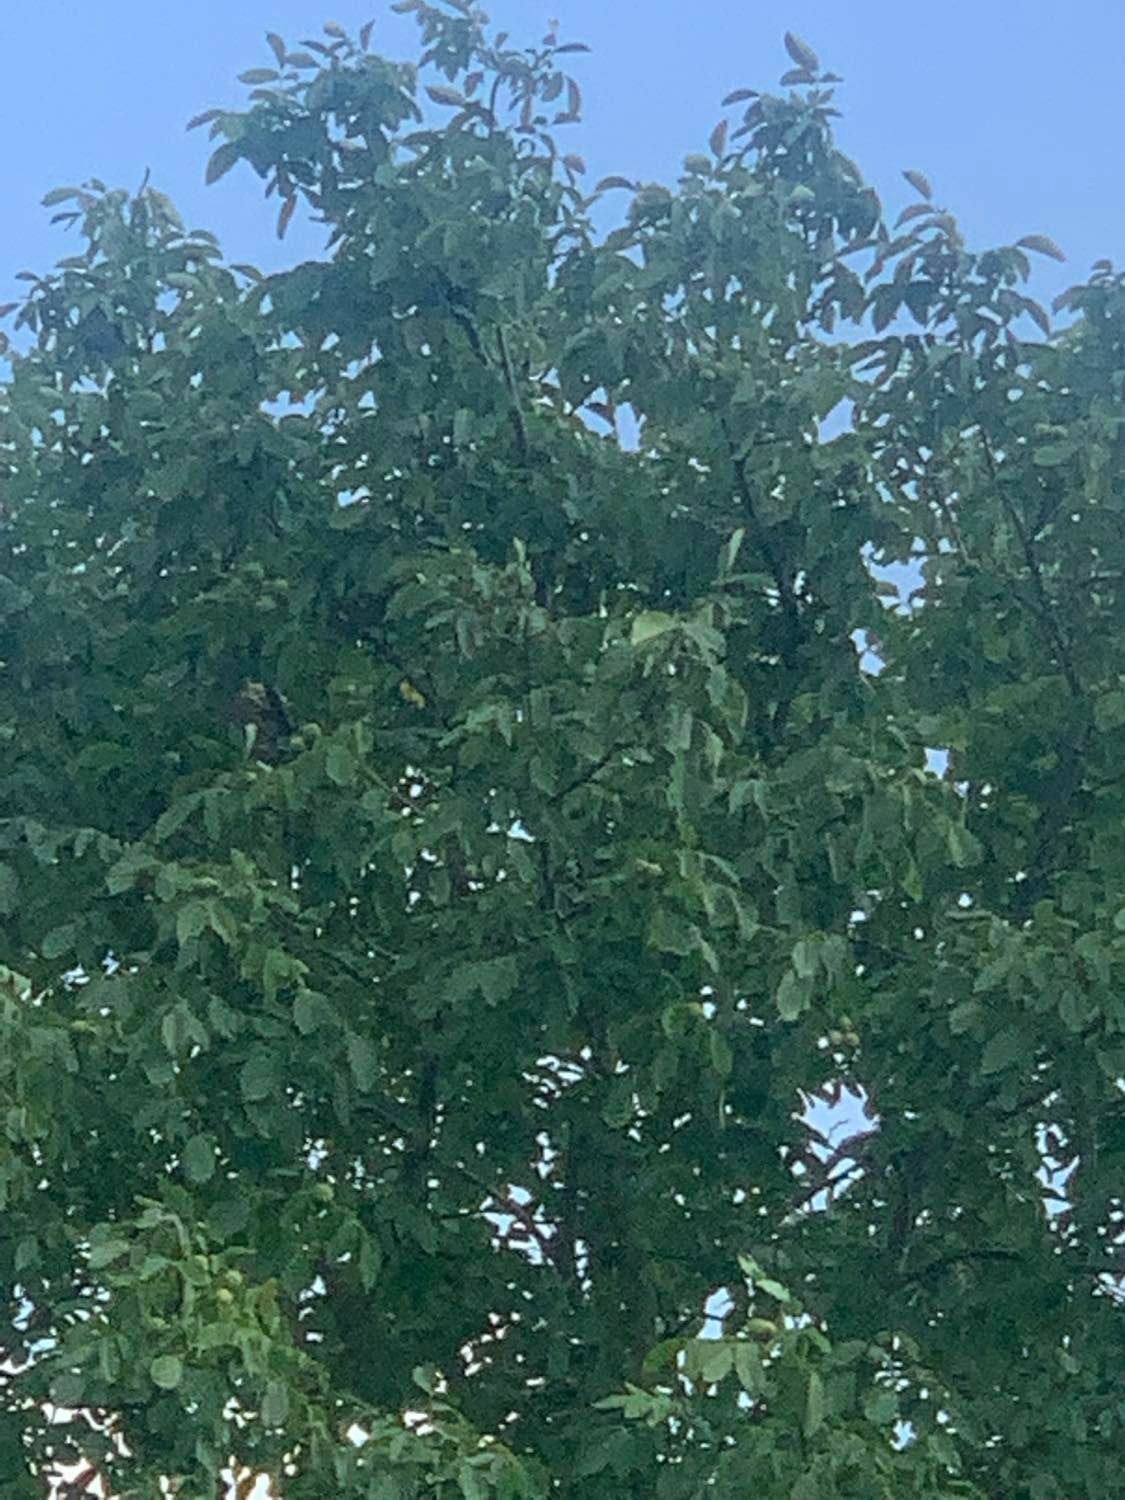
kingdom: Animalia
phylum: Arthropoda
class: Insecta
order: Hymenoptera
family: Vespidae
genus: Vespa
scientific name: Vespa velutina
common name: Asian hornet
